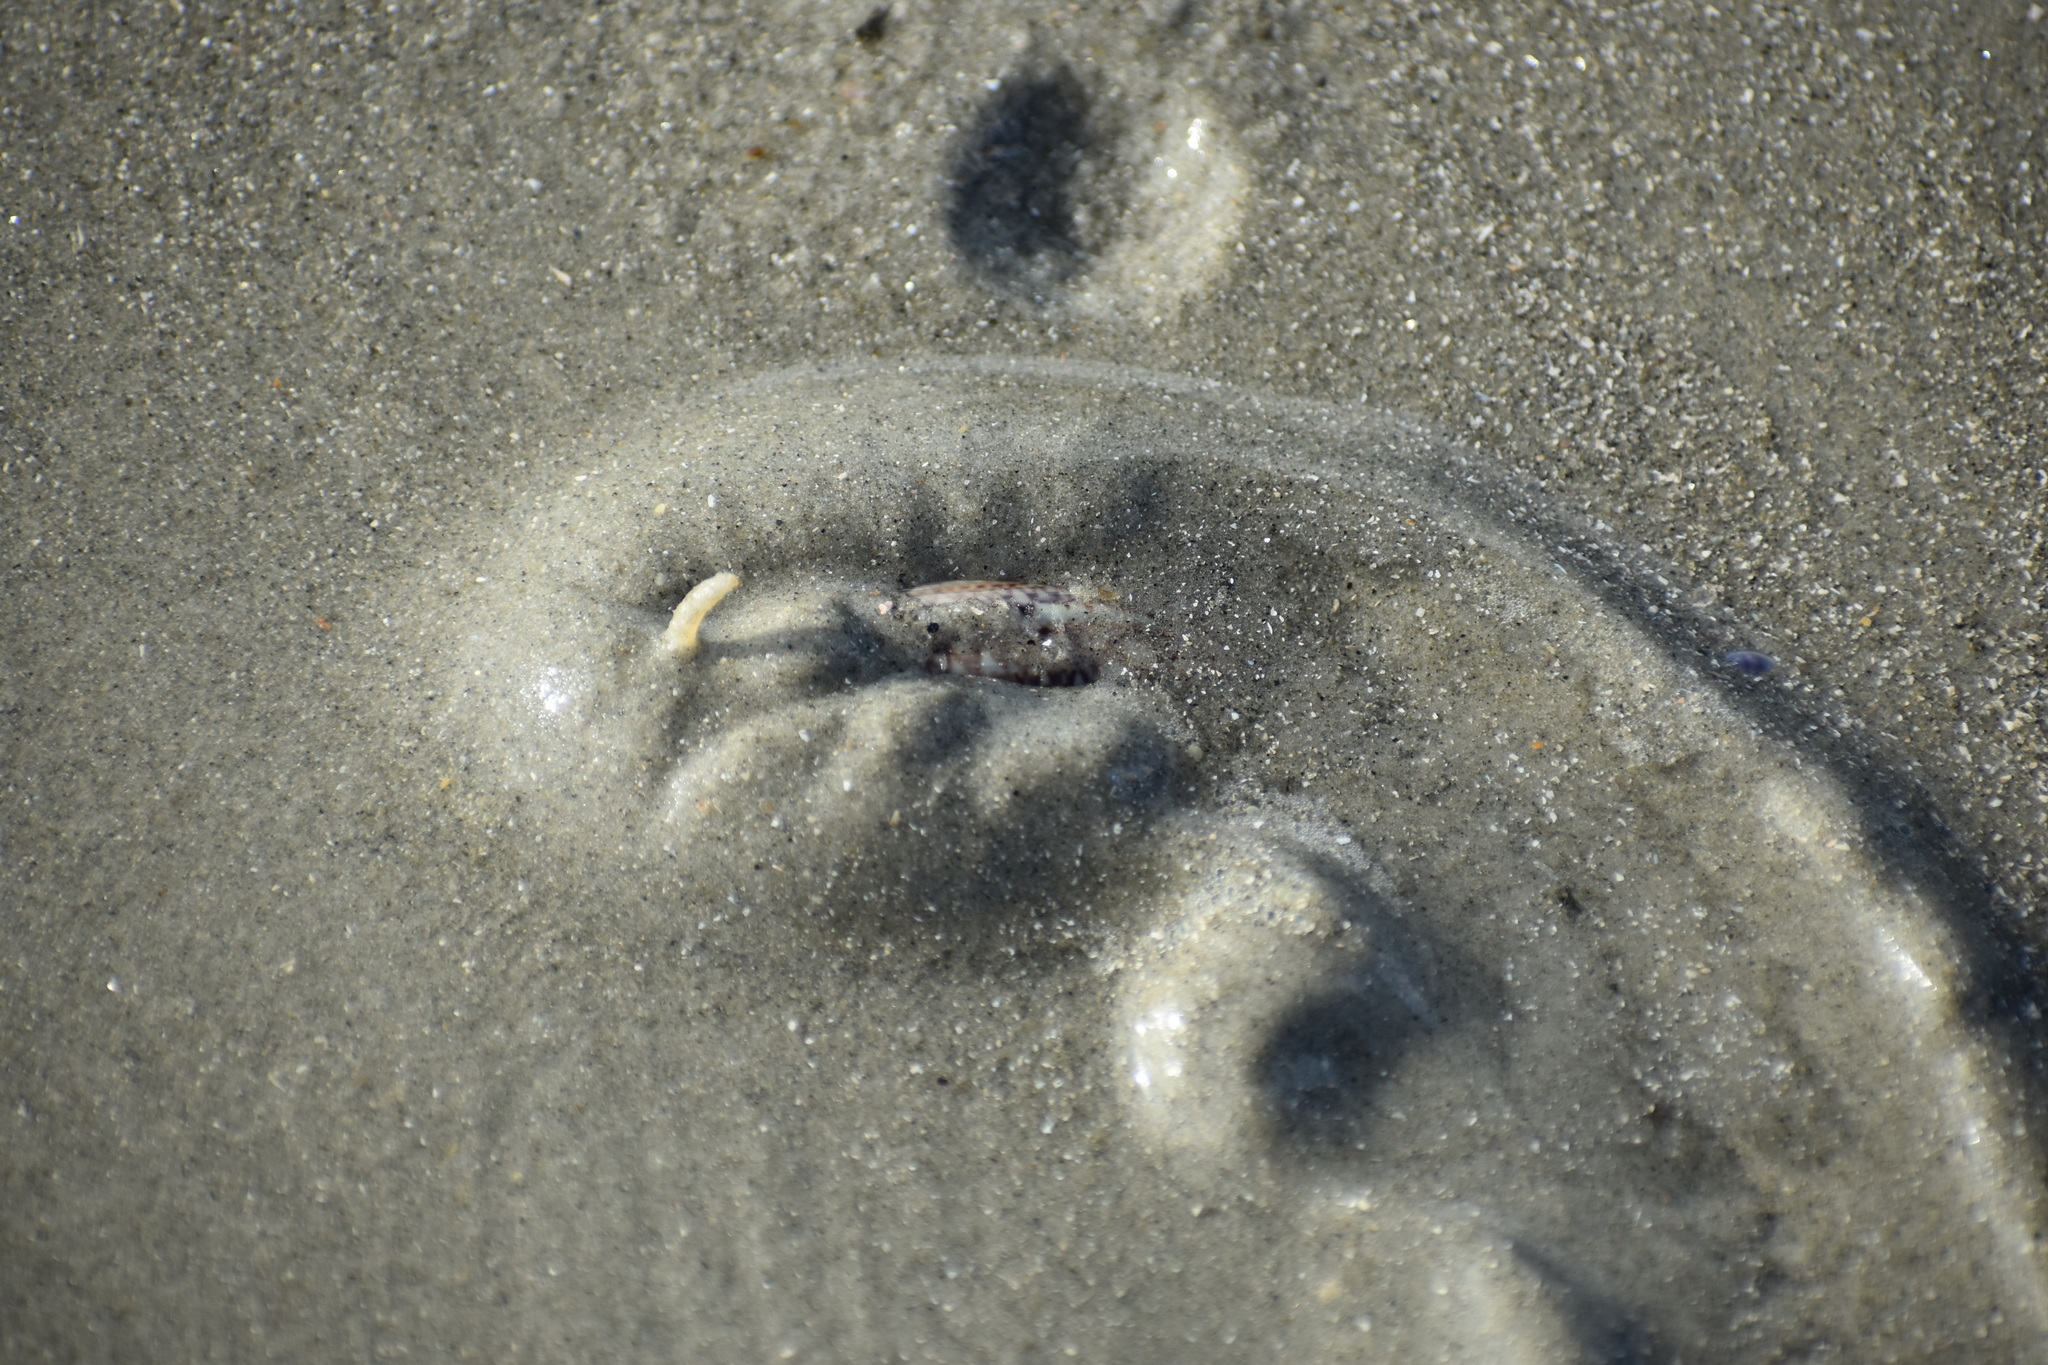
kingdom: Animalia
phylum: Mollusca
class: Gastropoda
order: Neogastropoda
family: Olividae
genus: Oliva
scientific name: Oliva sayana
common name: Lettered olive
